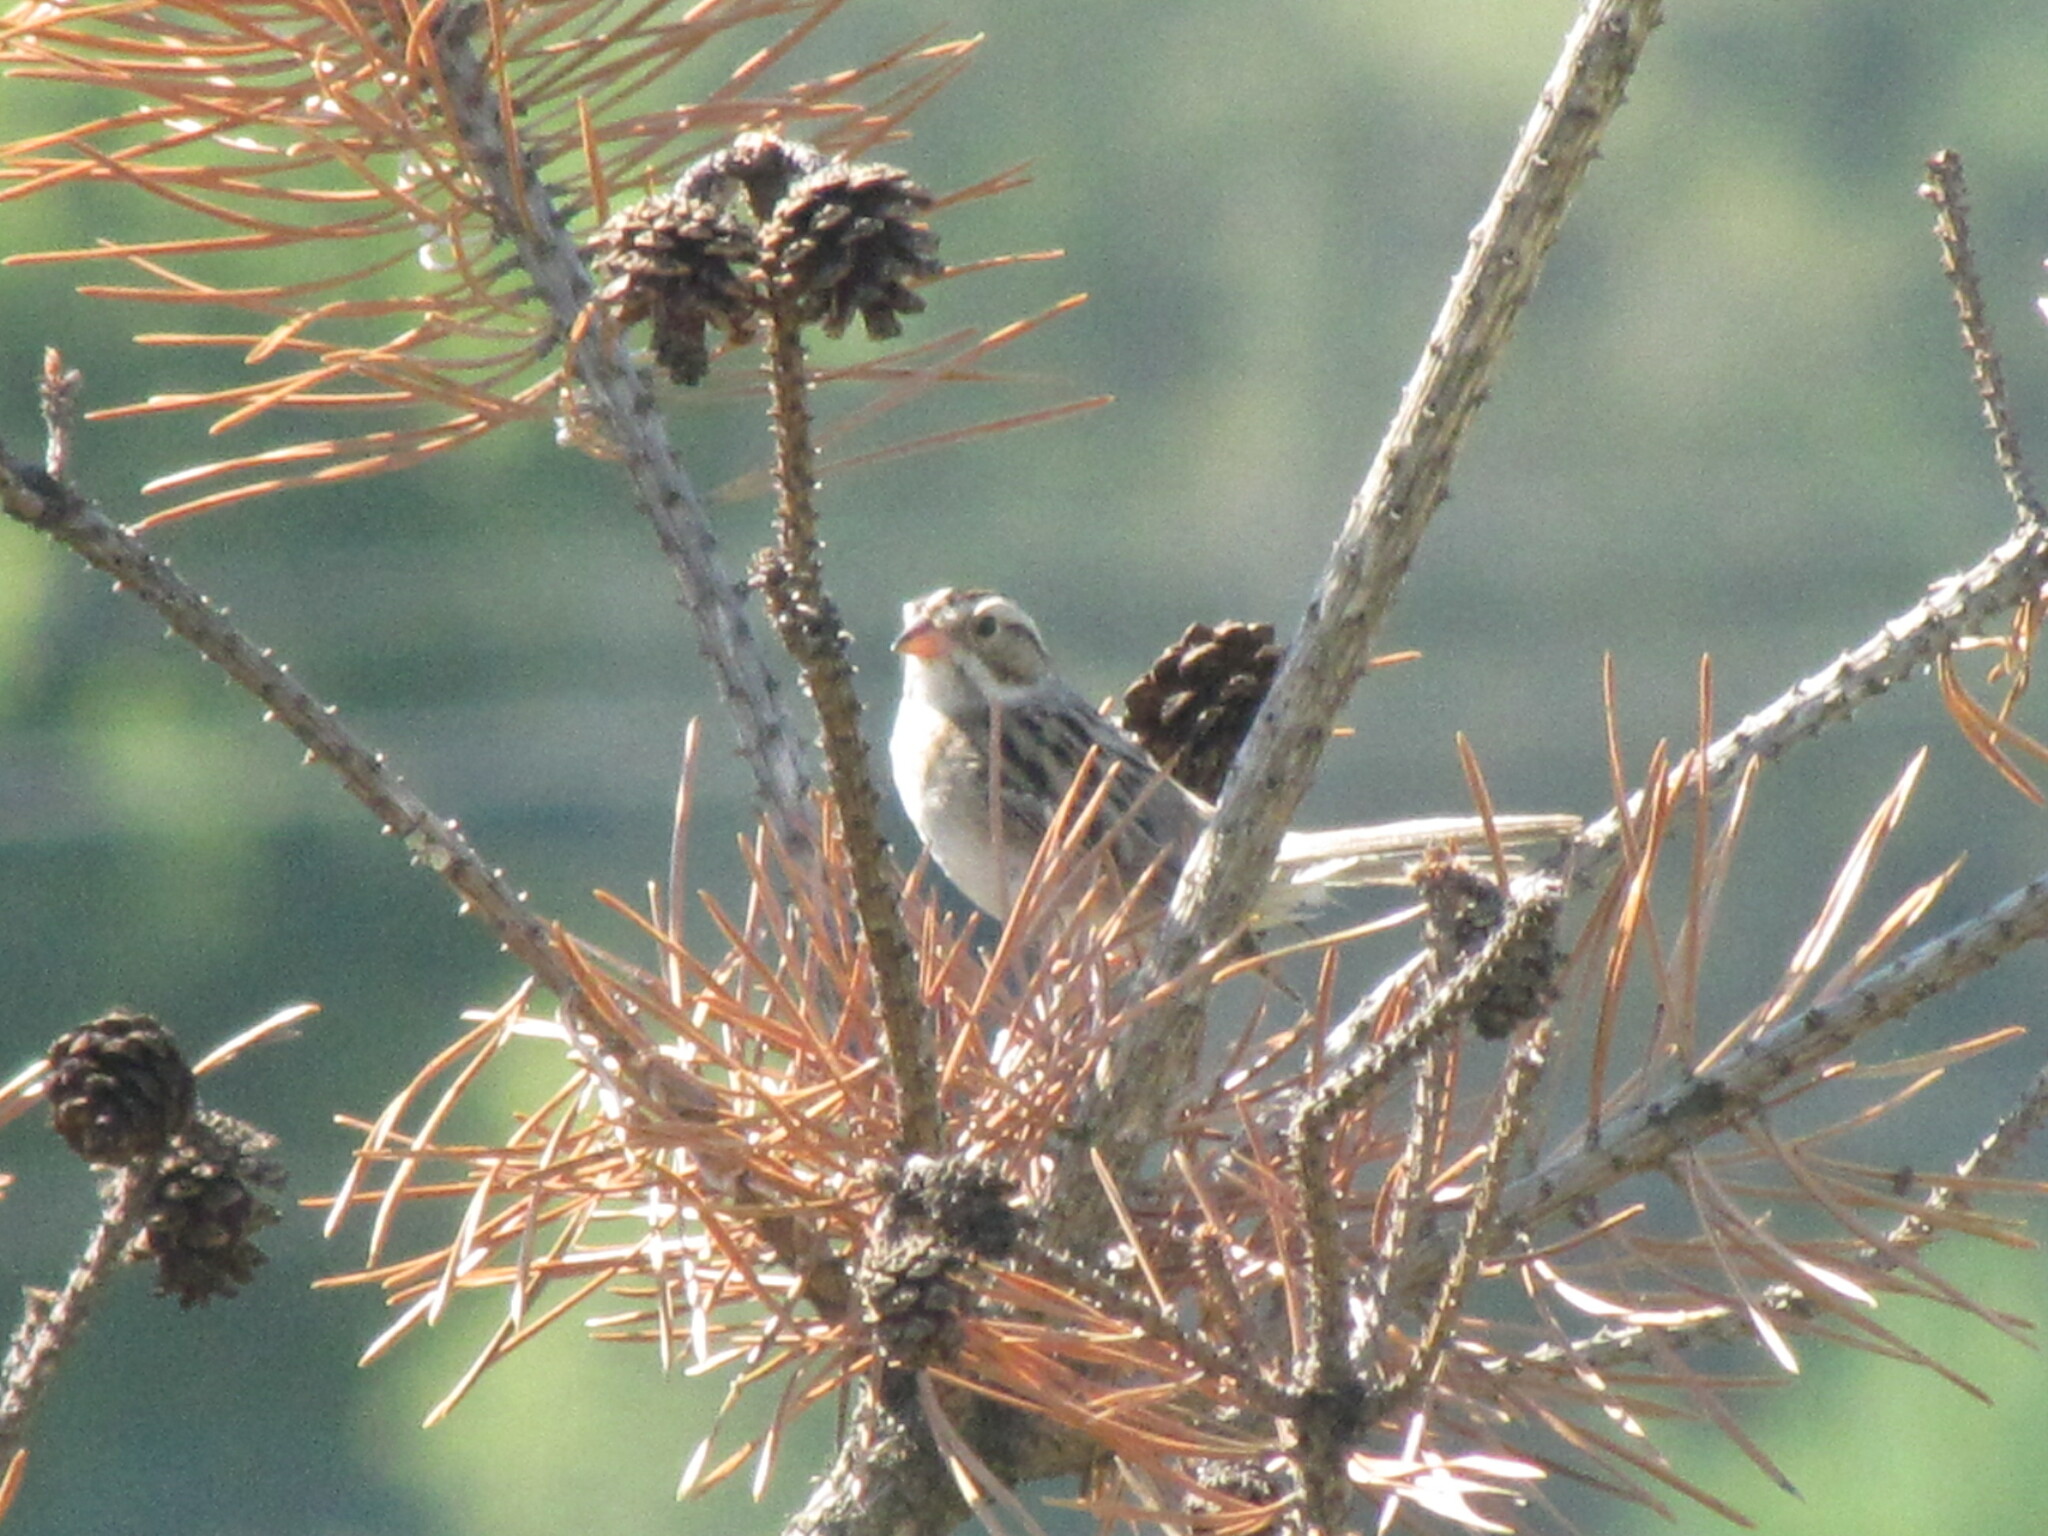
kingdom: Animalia
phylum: Chordata
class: Aves
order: Passeriformes
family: Passerellidae
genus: Spizella
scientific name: Spizella pallida
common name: Clay-colored sparrow
